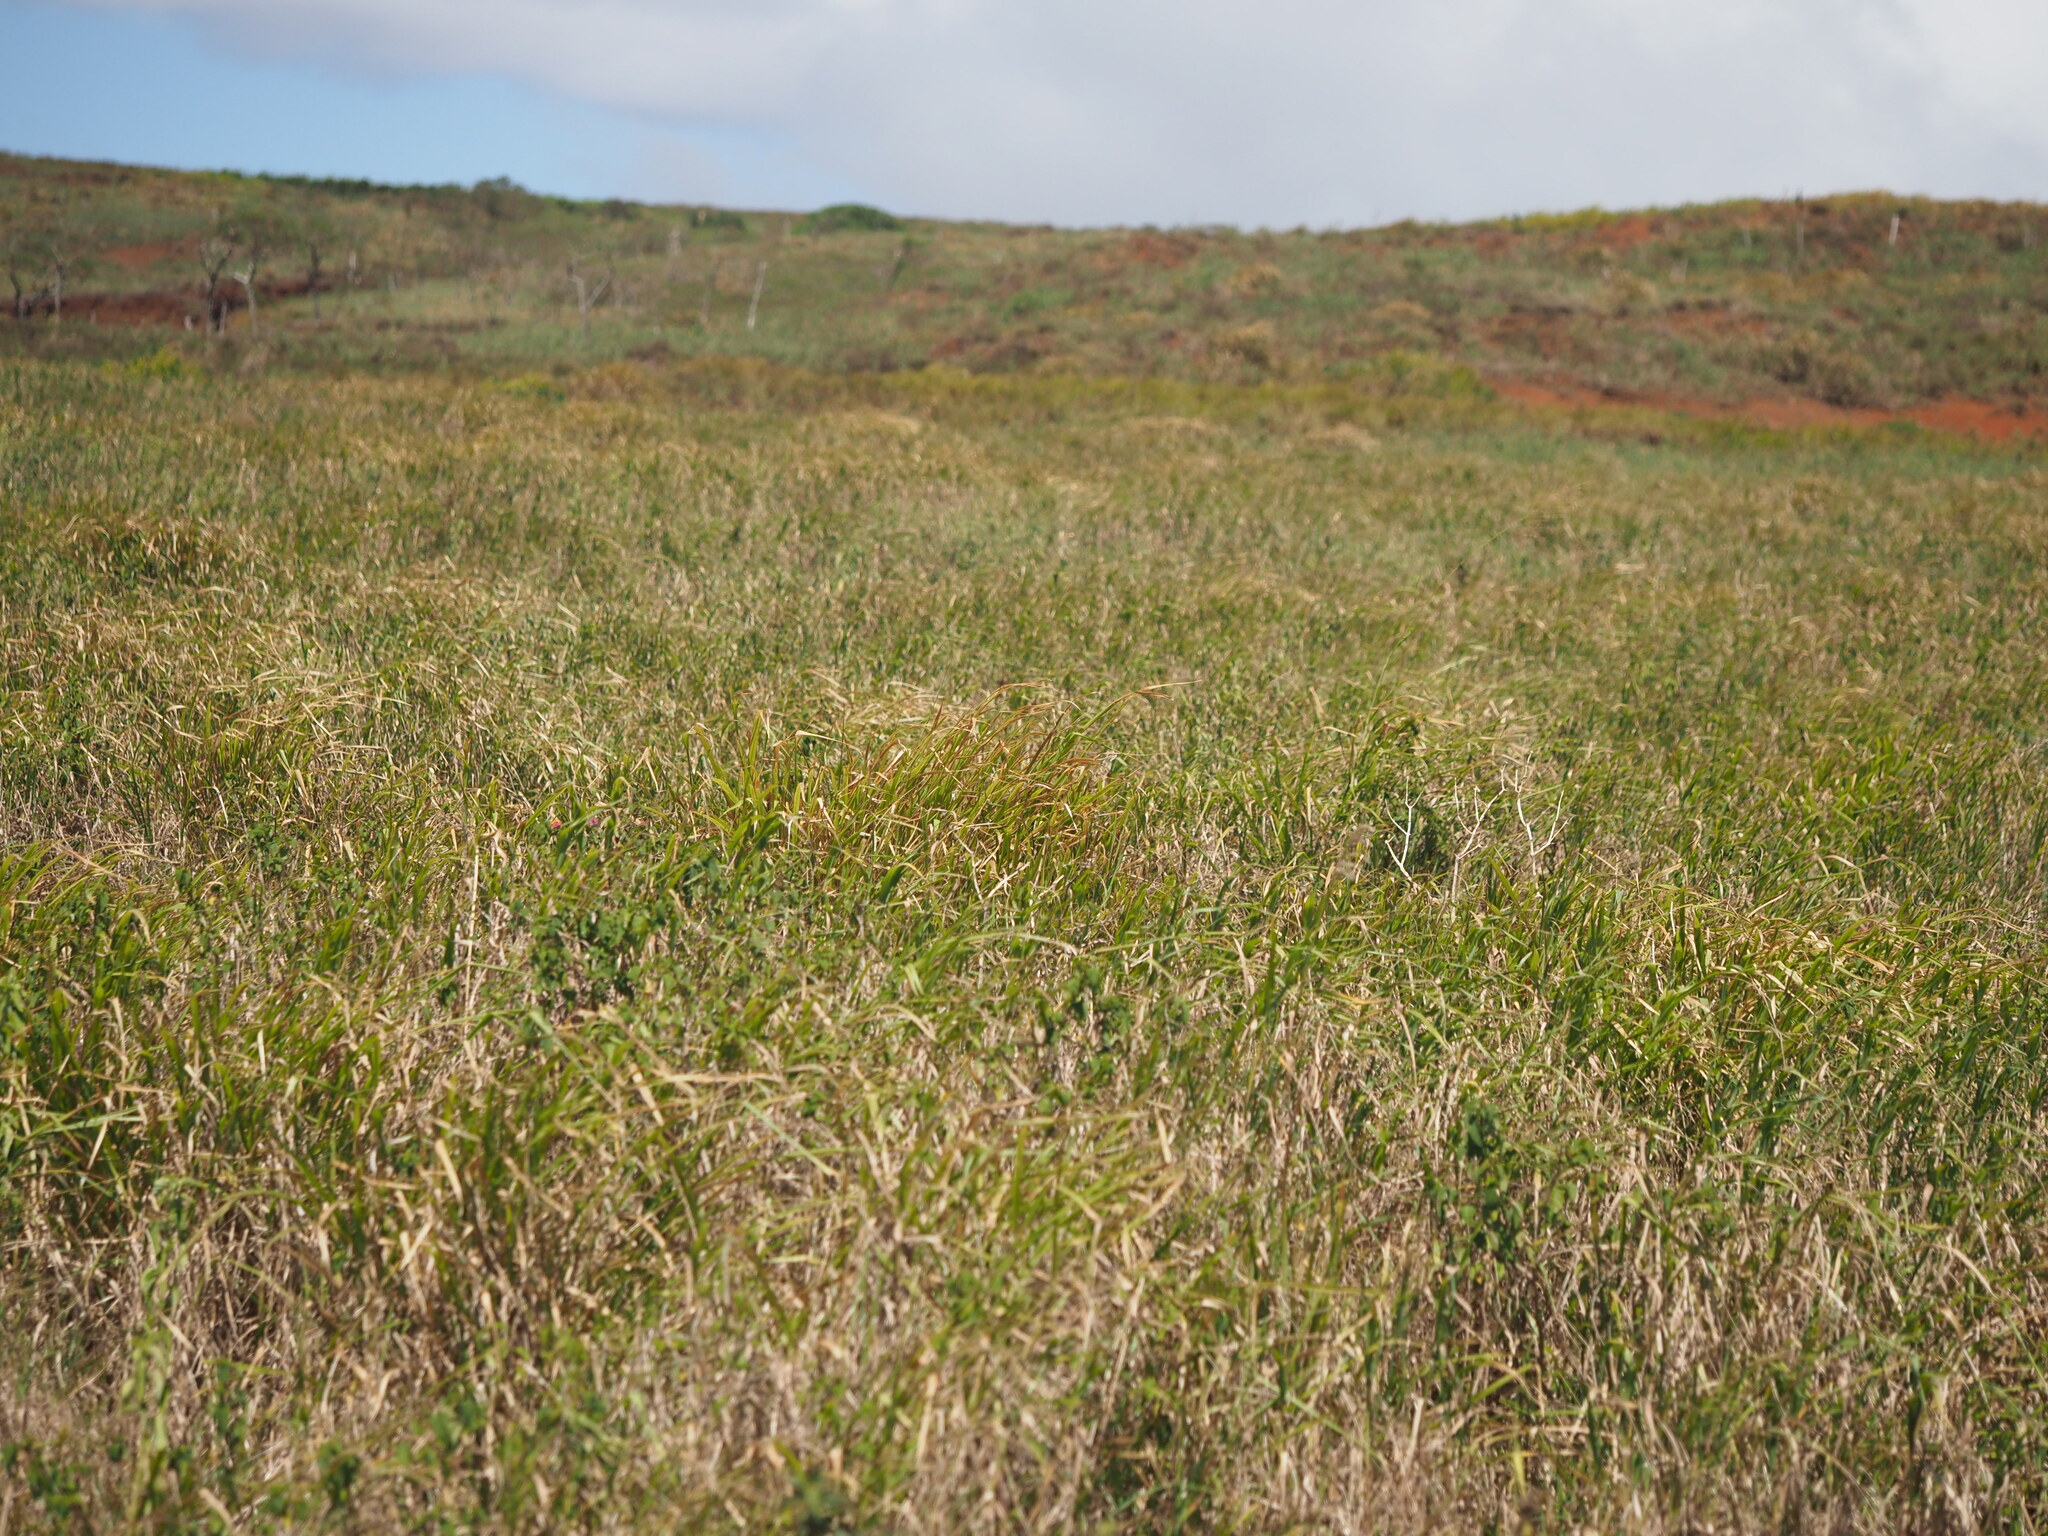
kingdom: Plantae
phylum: Tracheophyta
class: Liliopsida
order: Poales
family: Poaceae
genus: Megathyrsus
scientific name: Megathyrsus maximus
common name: Guineagrass
